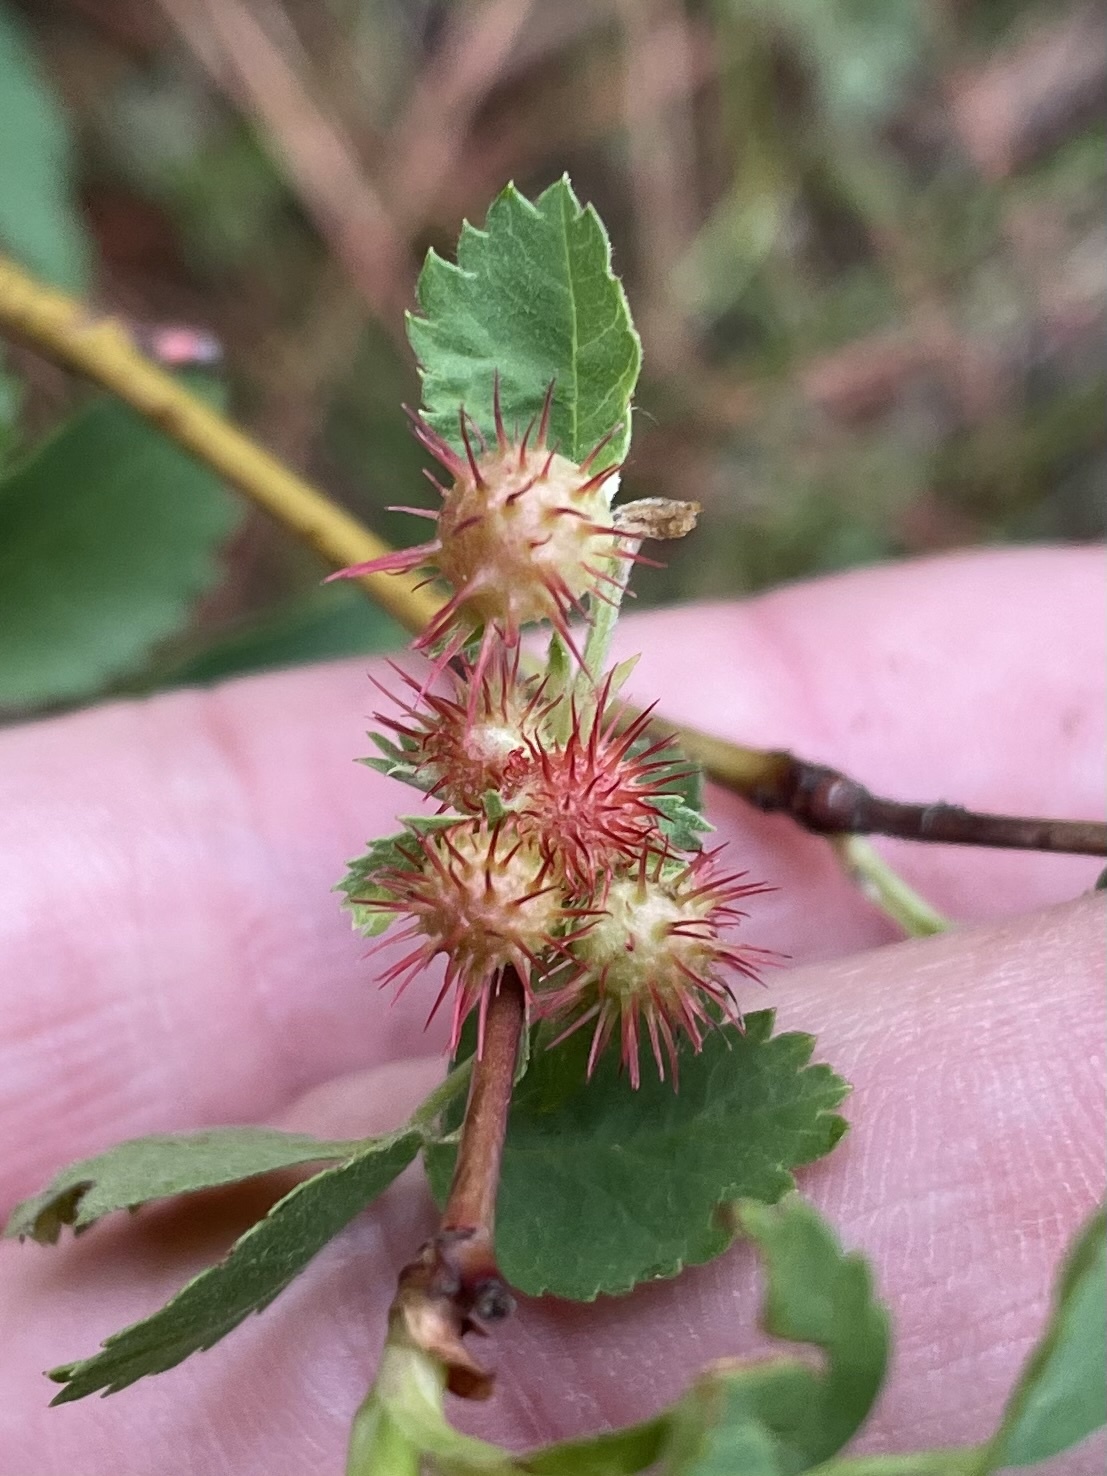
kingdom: Animalia
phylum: Arthropoda
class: Insecta
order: Hymenoptera
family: Cynipidae
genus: Diplolepis
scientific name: Diplolepis polita
